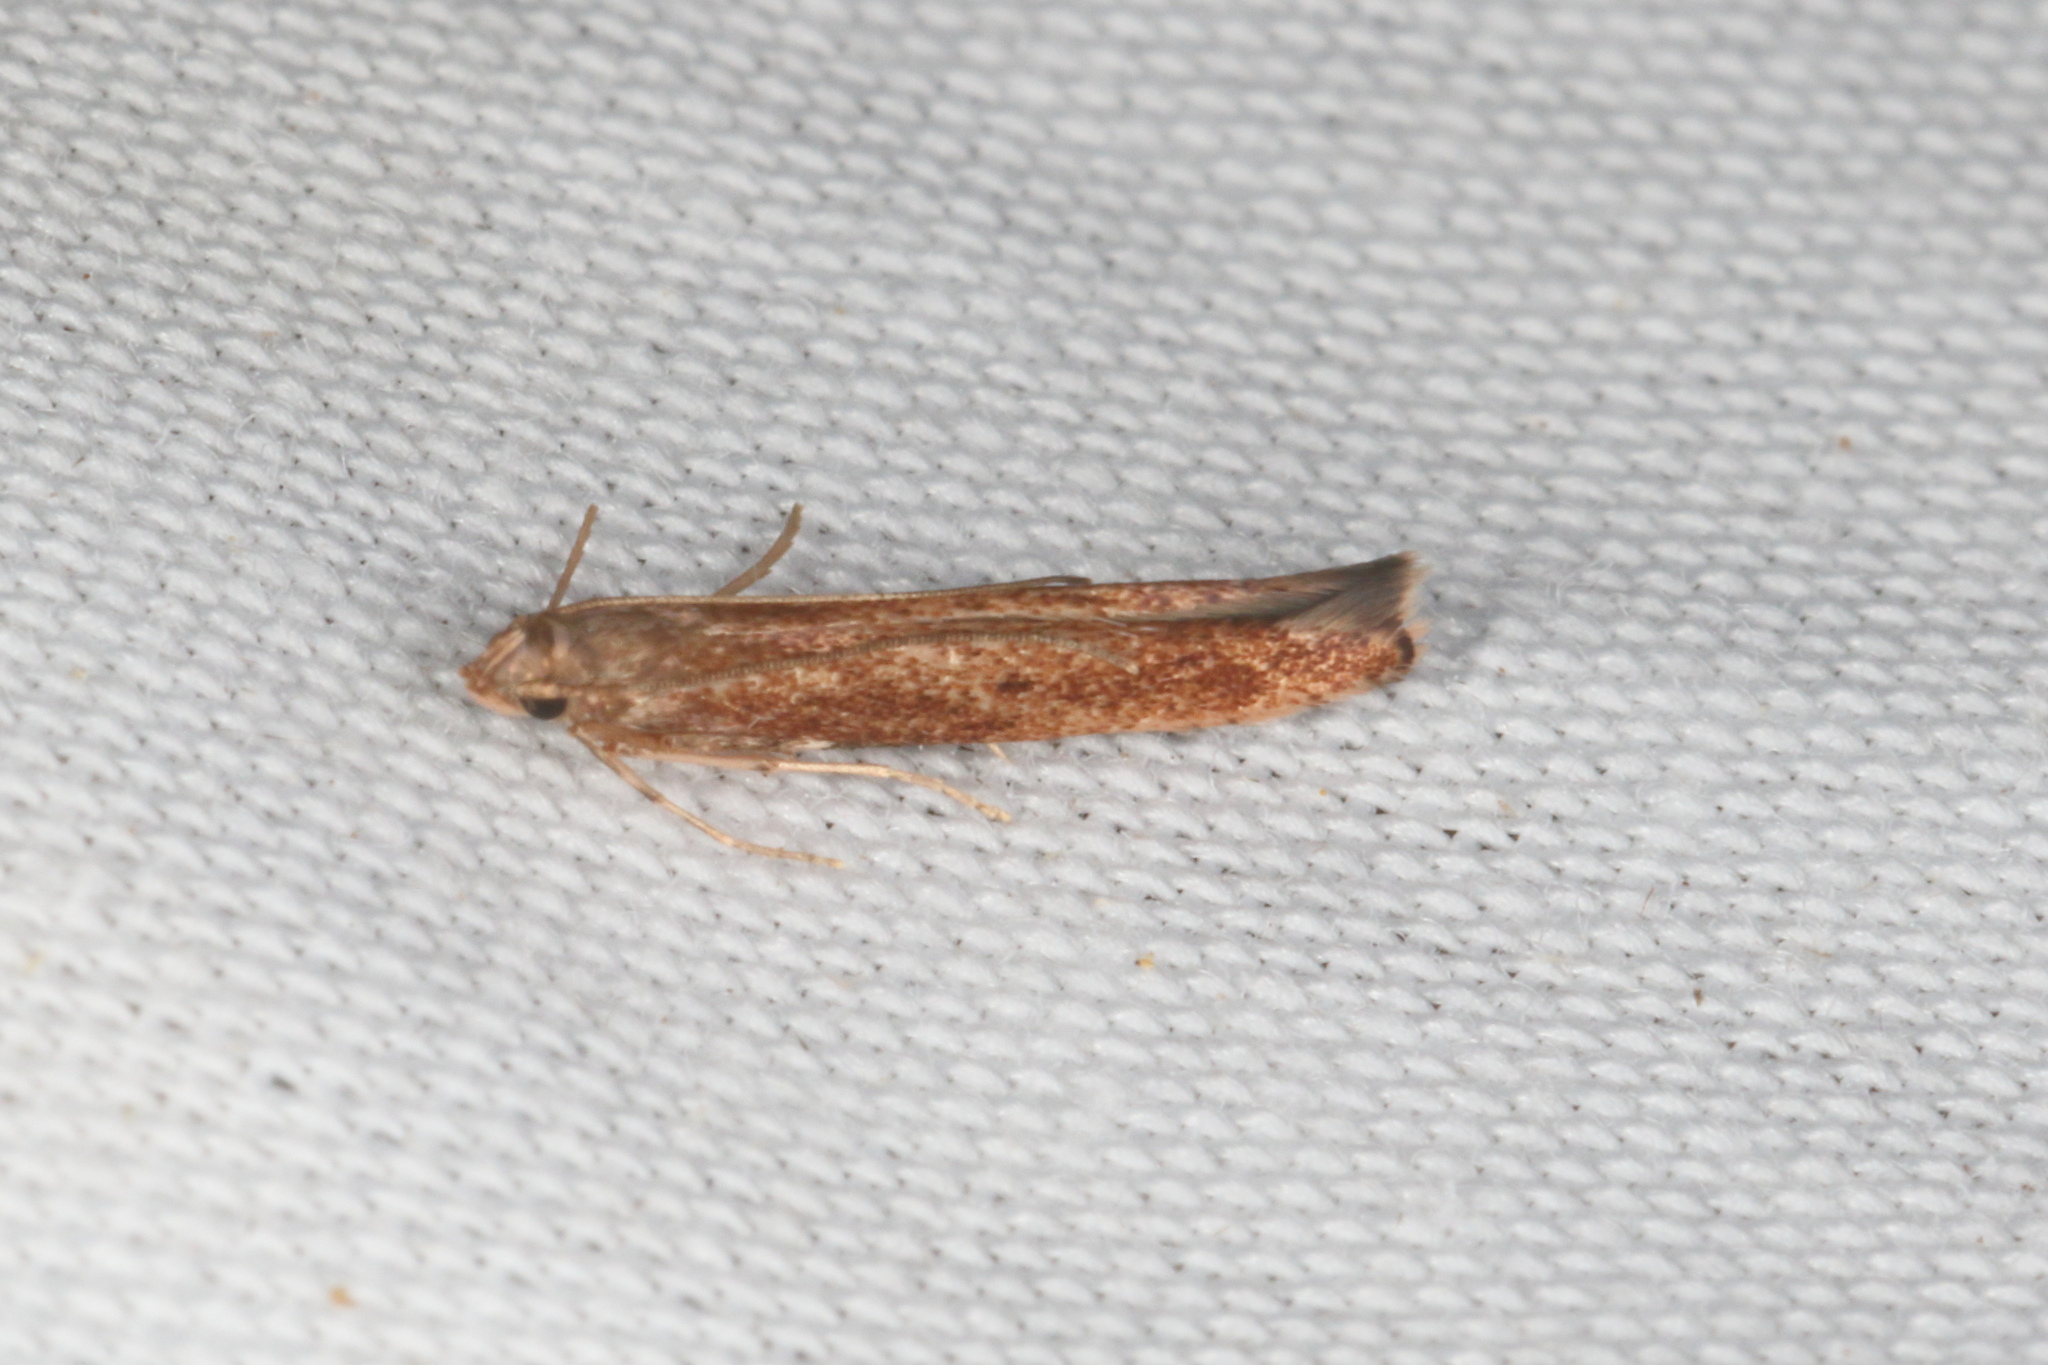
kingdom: Animalia
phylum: Arthropoda
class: Insecta
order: Lepidoptera
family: Batrachedridae
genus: Batrachedra
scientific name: Batrachedra agaura
